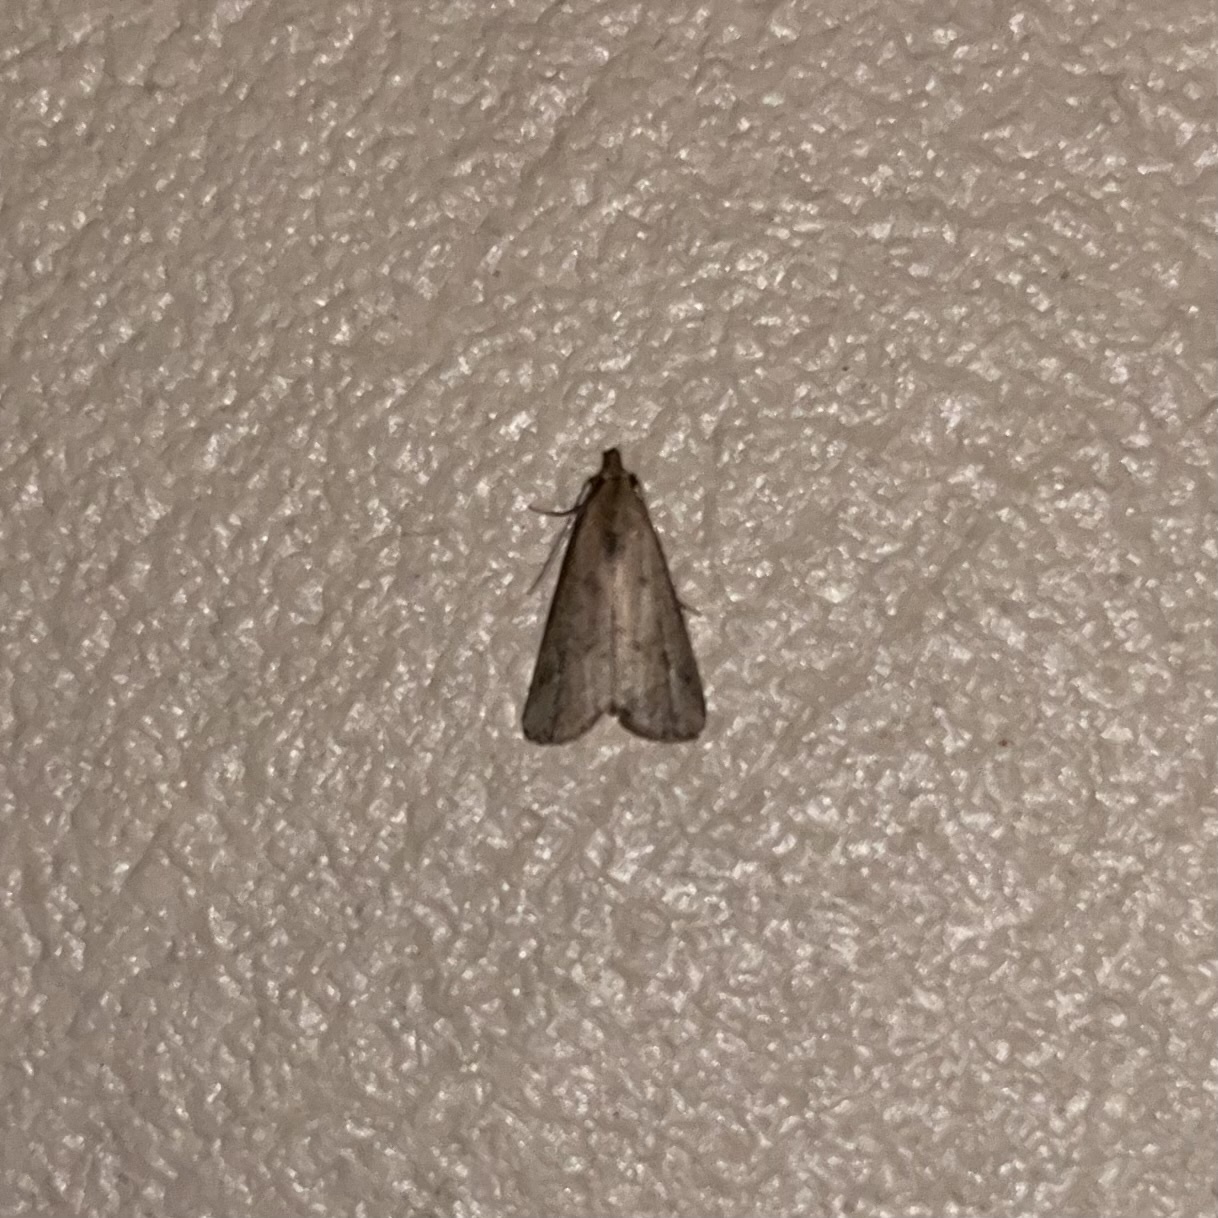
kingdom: Animalia
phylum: Arthropoda
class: Insecta
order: Lepidoptera
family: Erebidae
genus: Schrankia
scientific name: Schrankia
